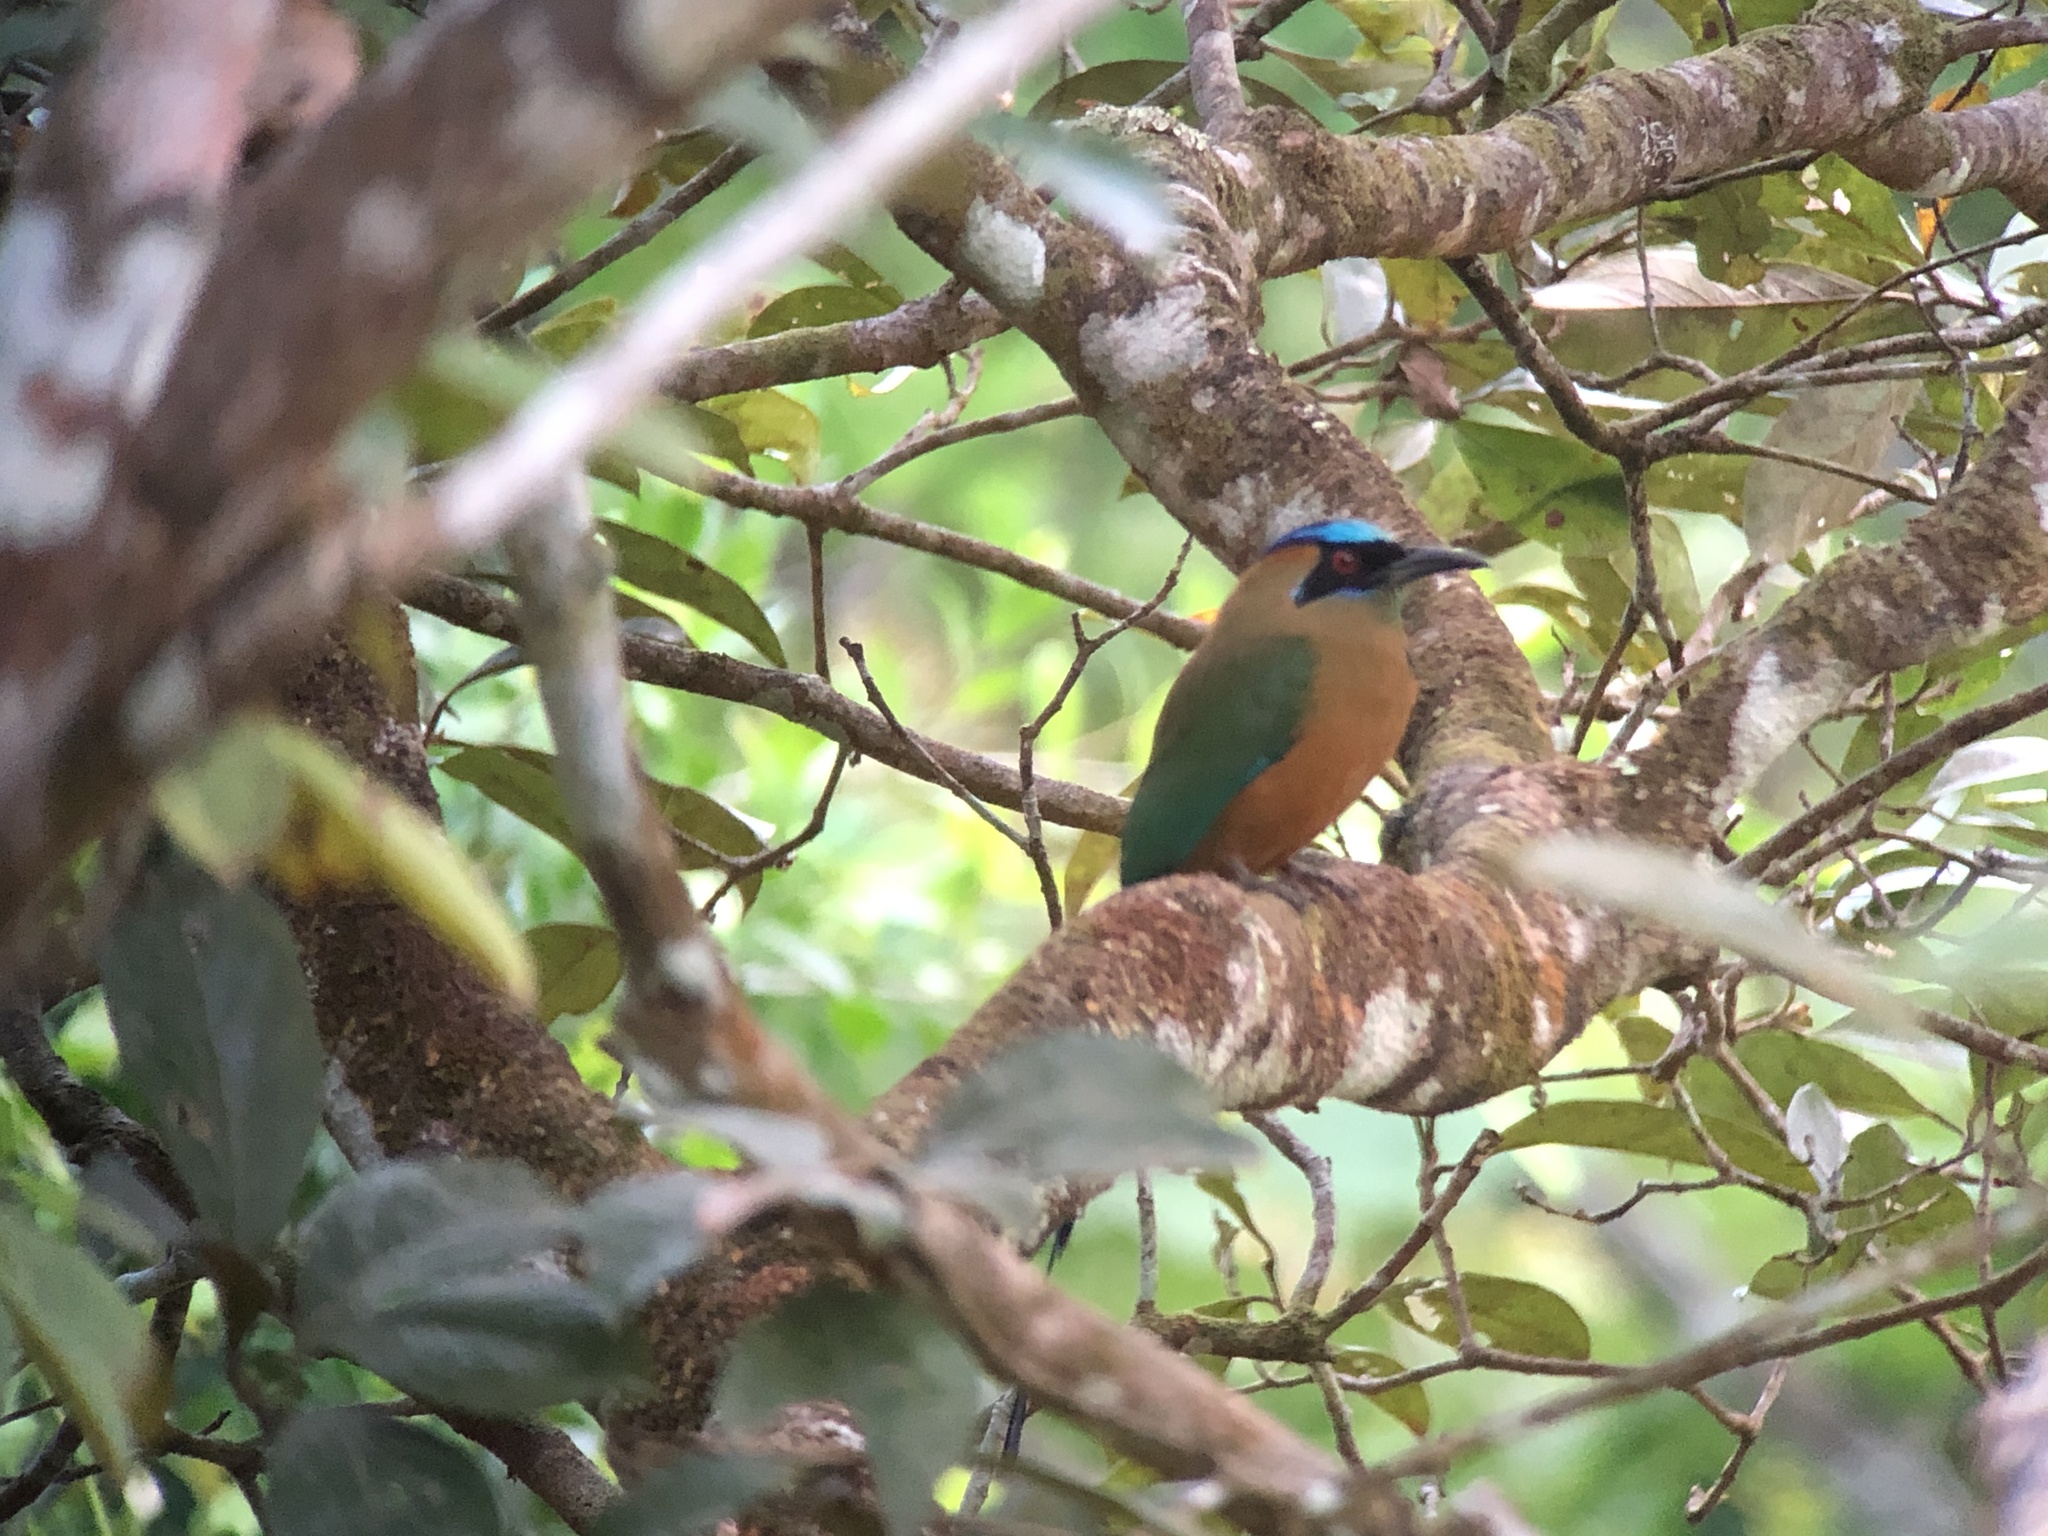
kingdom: Animalia
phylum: Chordata
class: Aves
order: Coraciiformes
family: Momotidae
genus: Momotus
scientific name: Momotus subrufescens
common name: Whooping motmot
